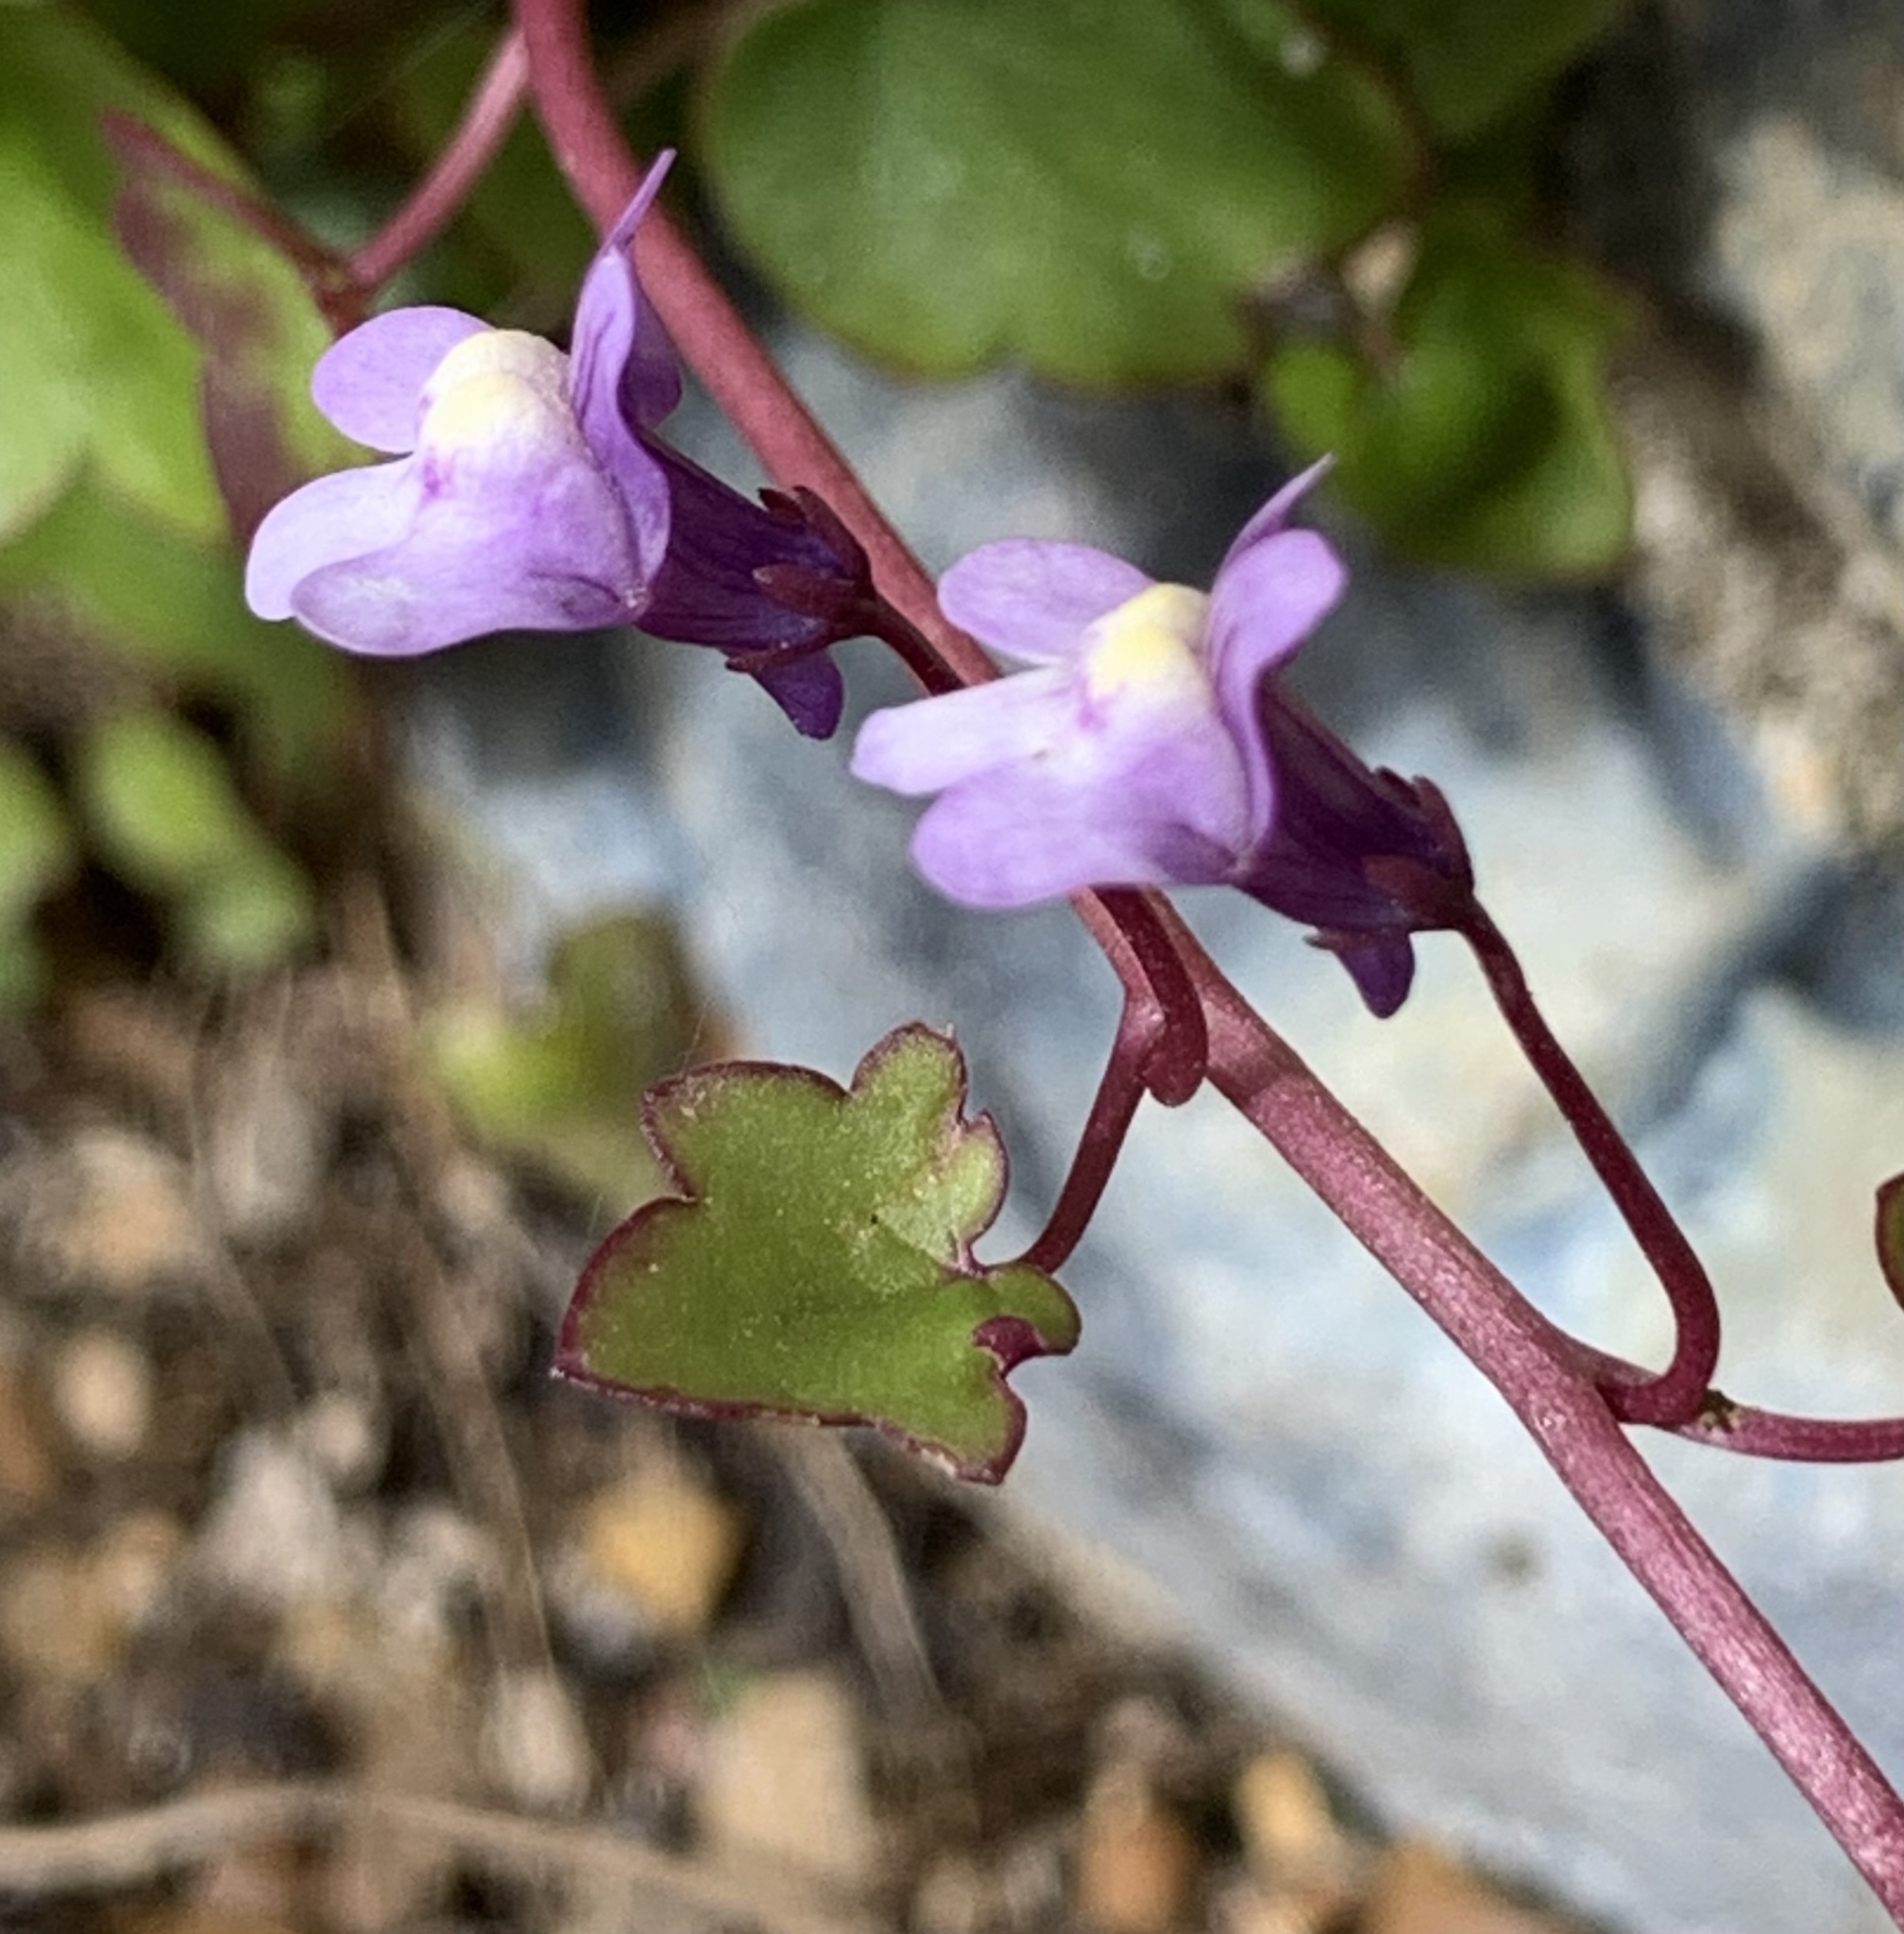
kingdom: Plantae
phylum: Tracheophyta
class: Magnoliopsida
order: Lamiales
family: Plantaginaceae
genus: Cymbalaria
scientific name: Cymbalaria muralis
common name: Ivy-leaved toadflax
